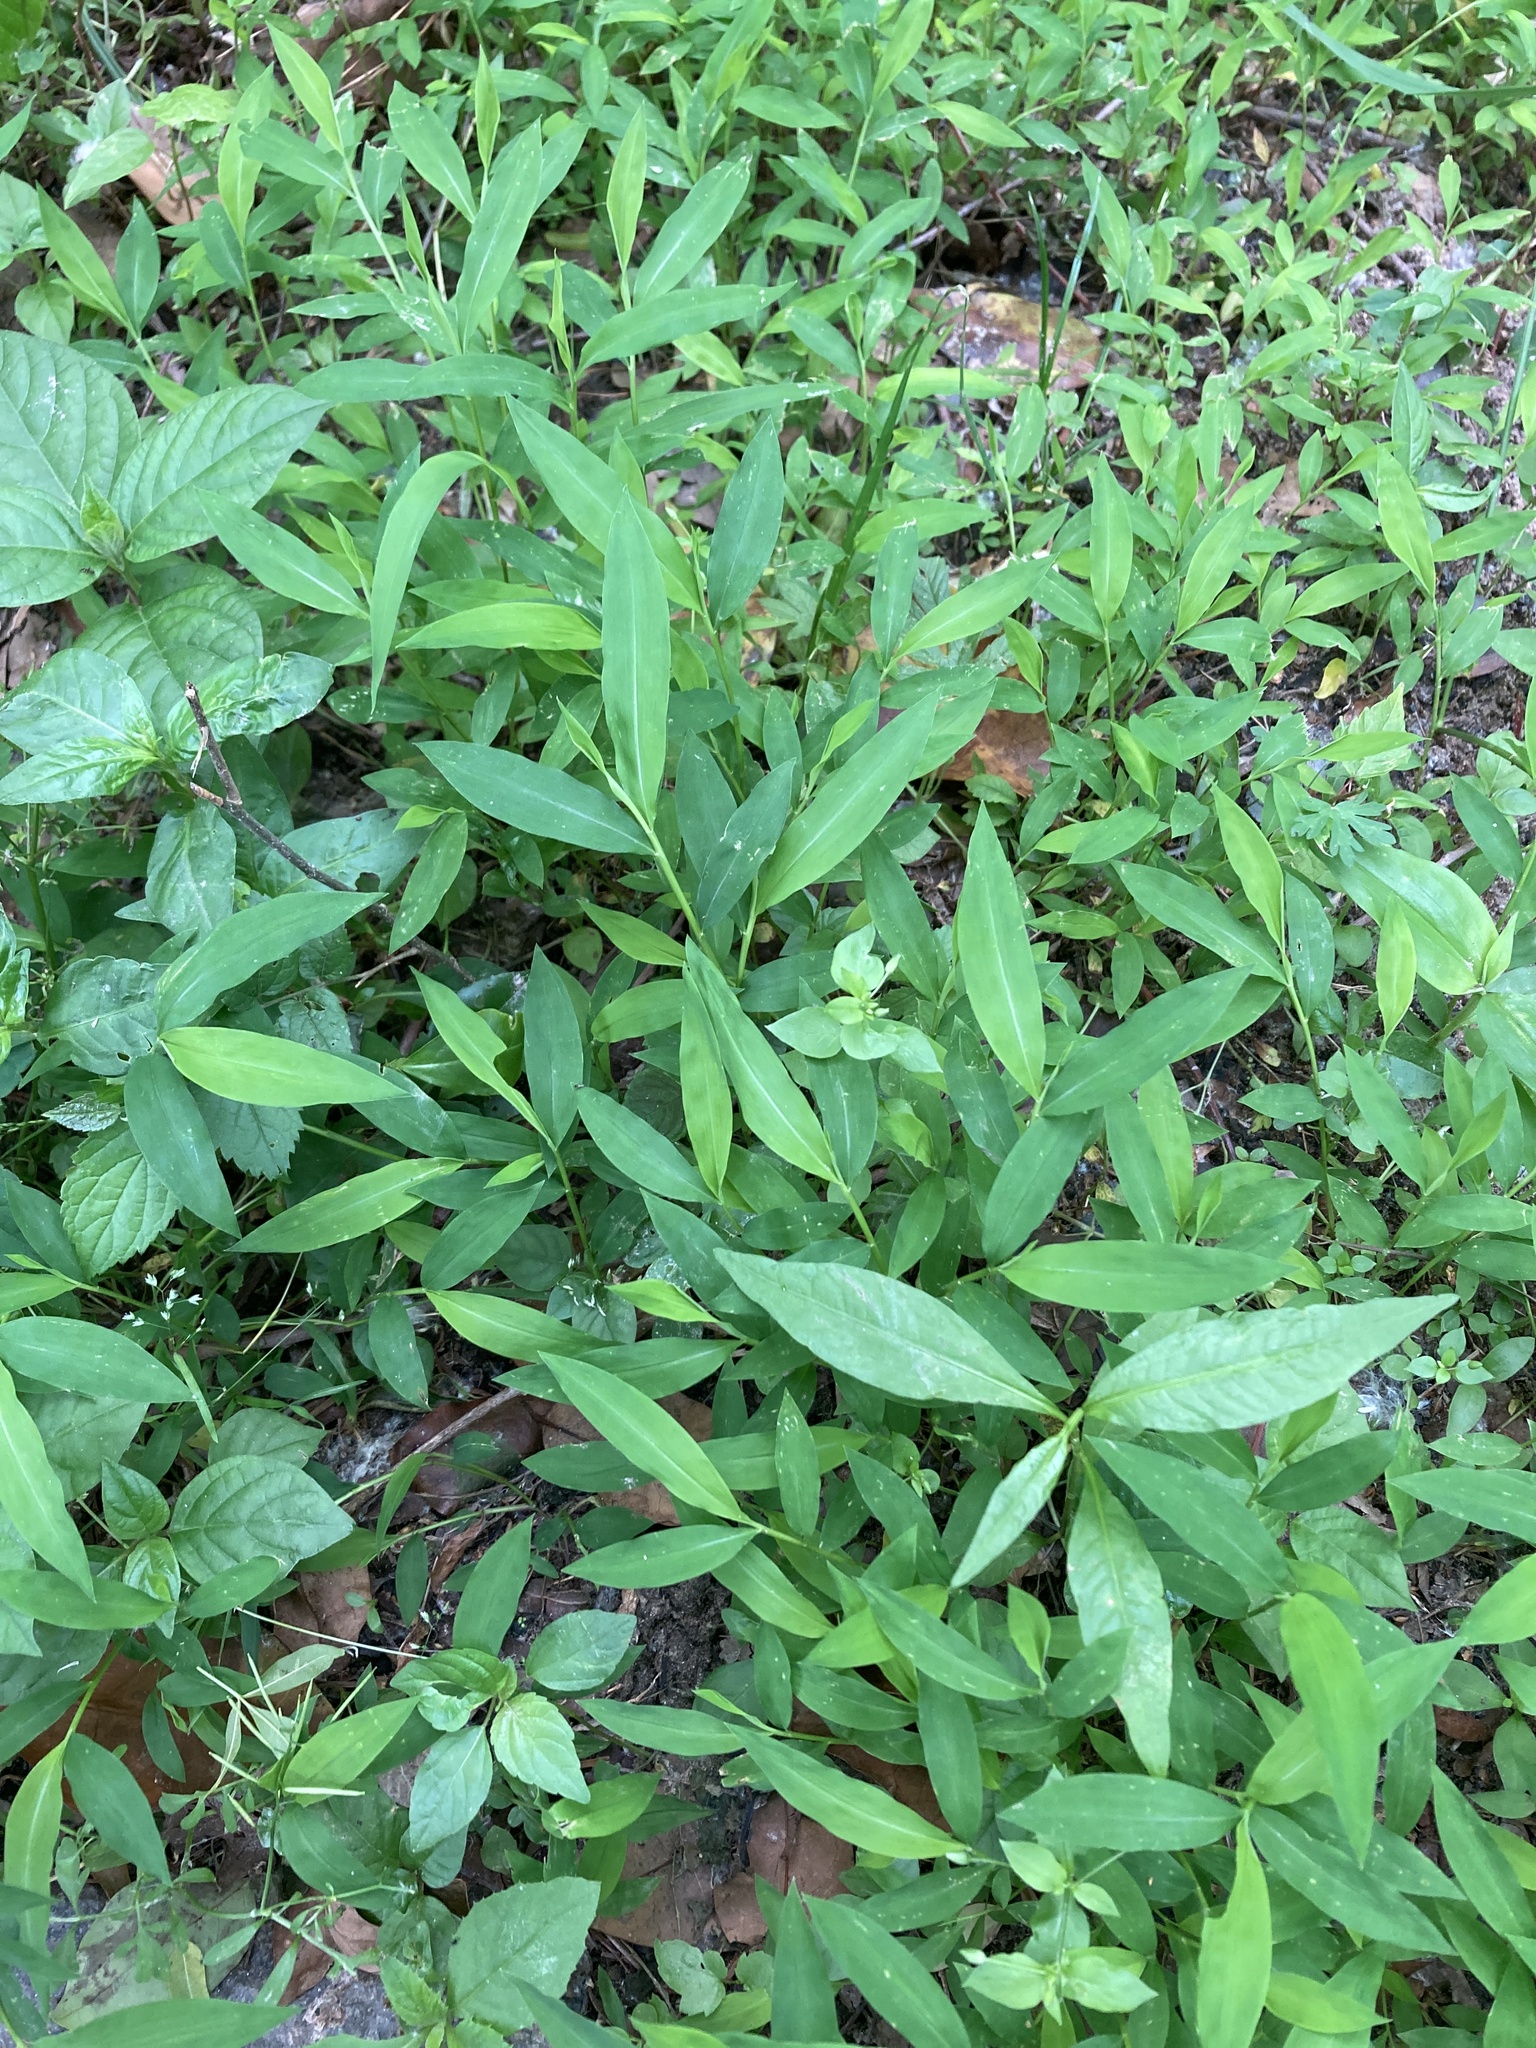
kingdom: Plantae
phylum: Tracheophyta
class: Liliopsida
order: Poales
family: Poaceae
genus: Microstegium
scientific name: Microstegium vimineum
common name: Japanese stiltgrass
